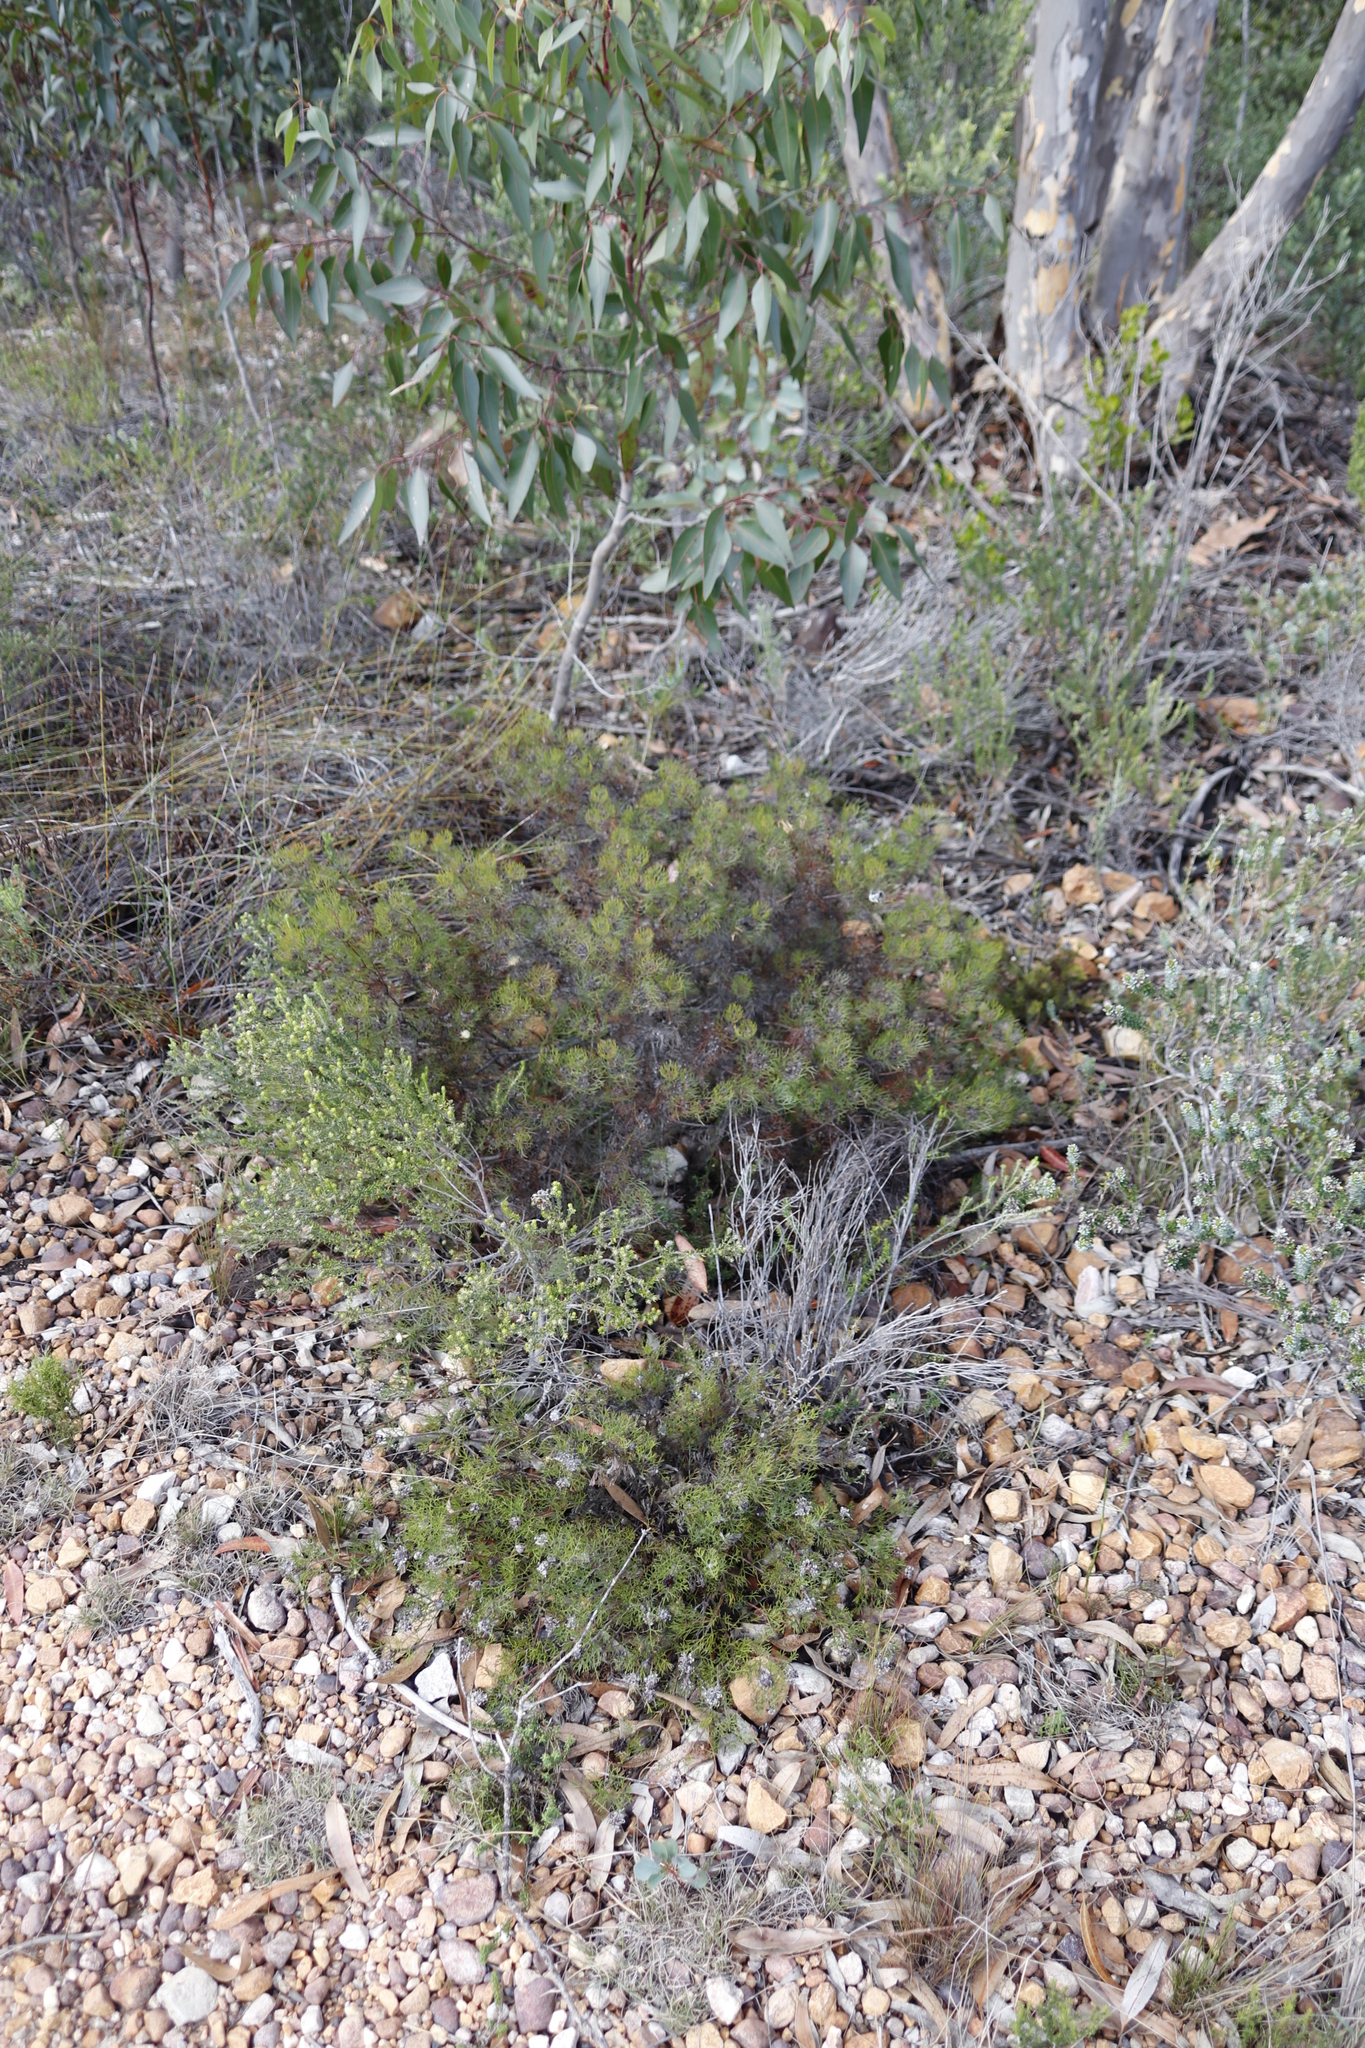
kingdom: Plantae
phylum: Tracheophyta
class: Magnoliopsida
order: Proteales
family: Proteaceae
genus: Serruria
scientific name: Serruria fasciflora
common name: Common pin spiderhead
